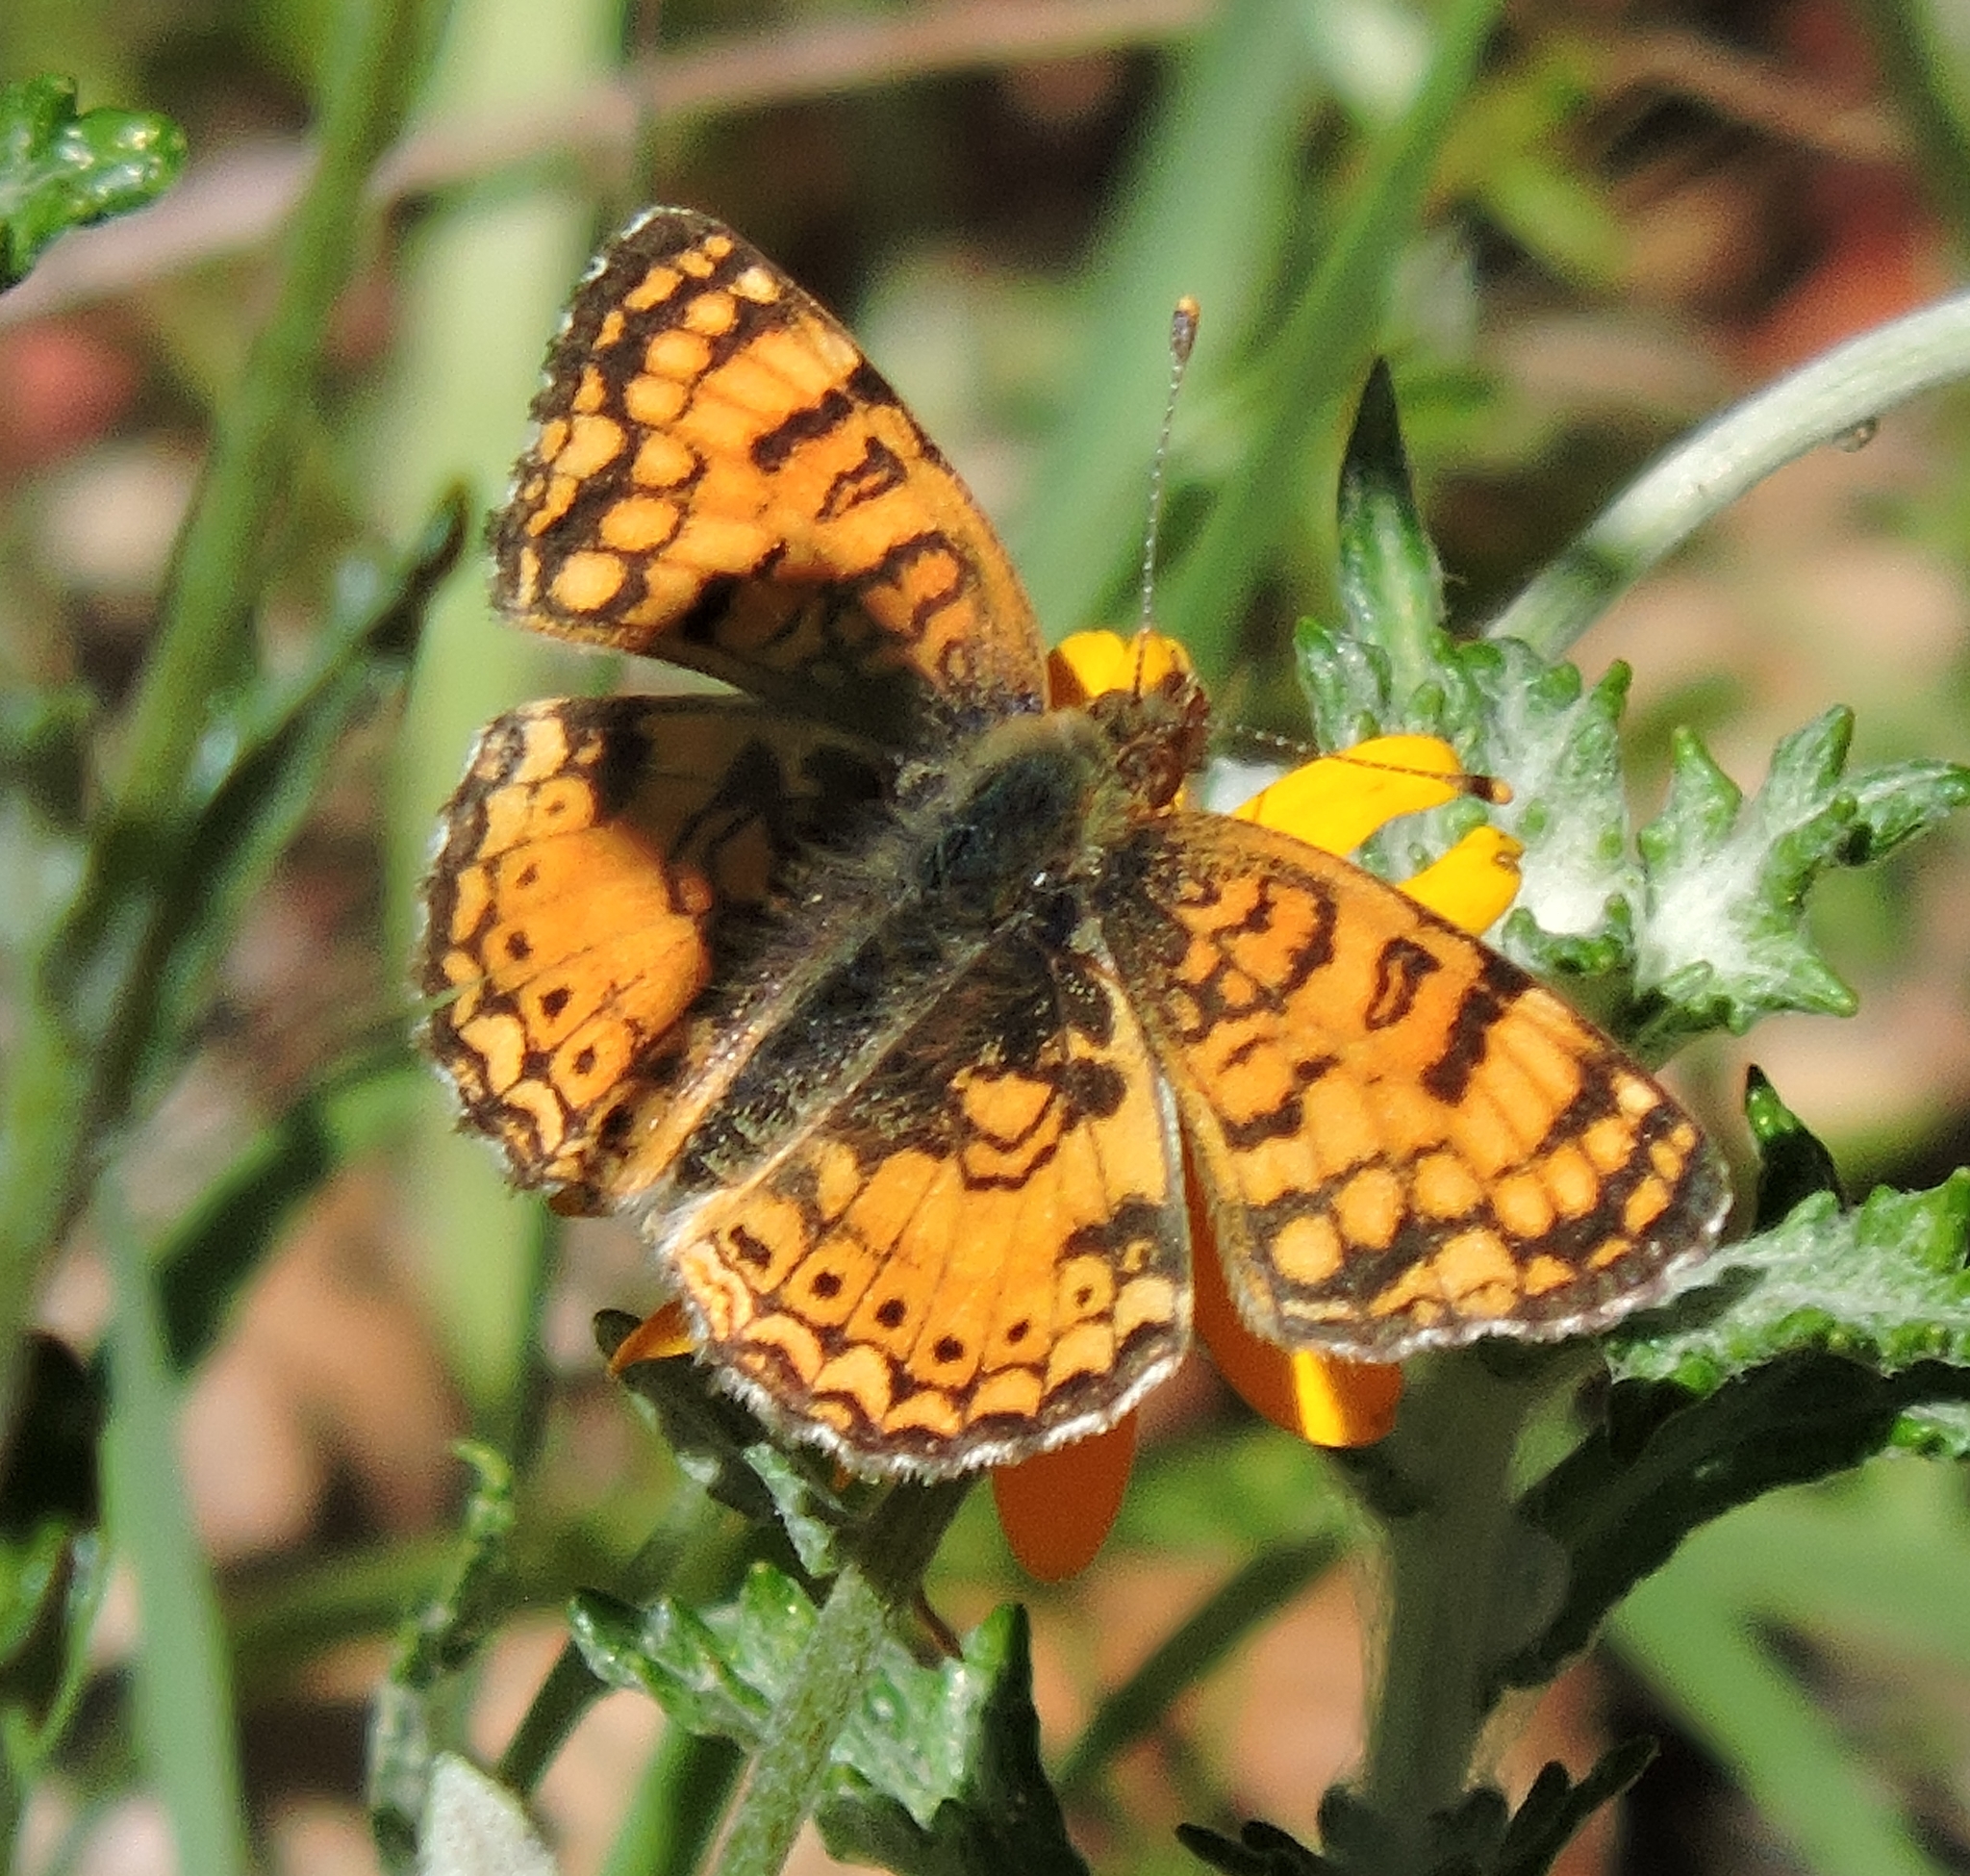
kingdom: Animalia
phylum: Arthropoda
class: Insecta
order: Lepidoptera
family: Nymphalidae
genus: Eresia
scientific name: Eresia aveyrona
